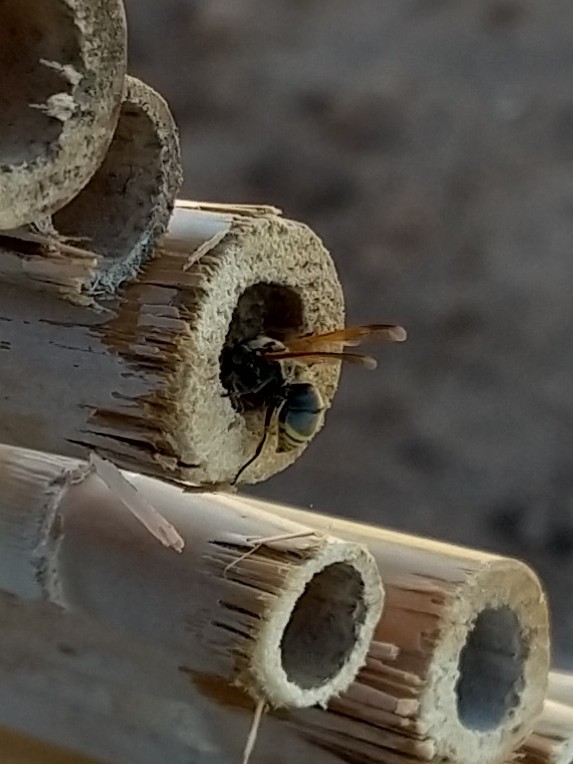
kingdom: Animalia
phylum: Arthropoda
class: Insecta
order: Hymenoptera
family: Eumenidae
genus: Pachodynerus
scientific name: Pachodynerus
